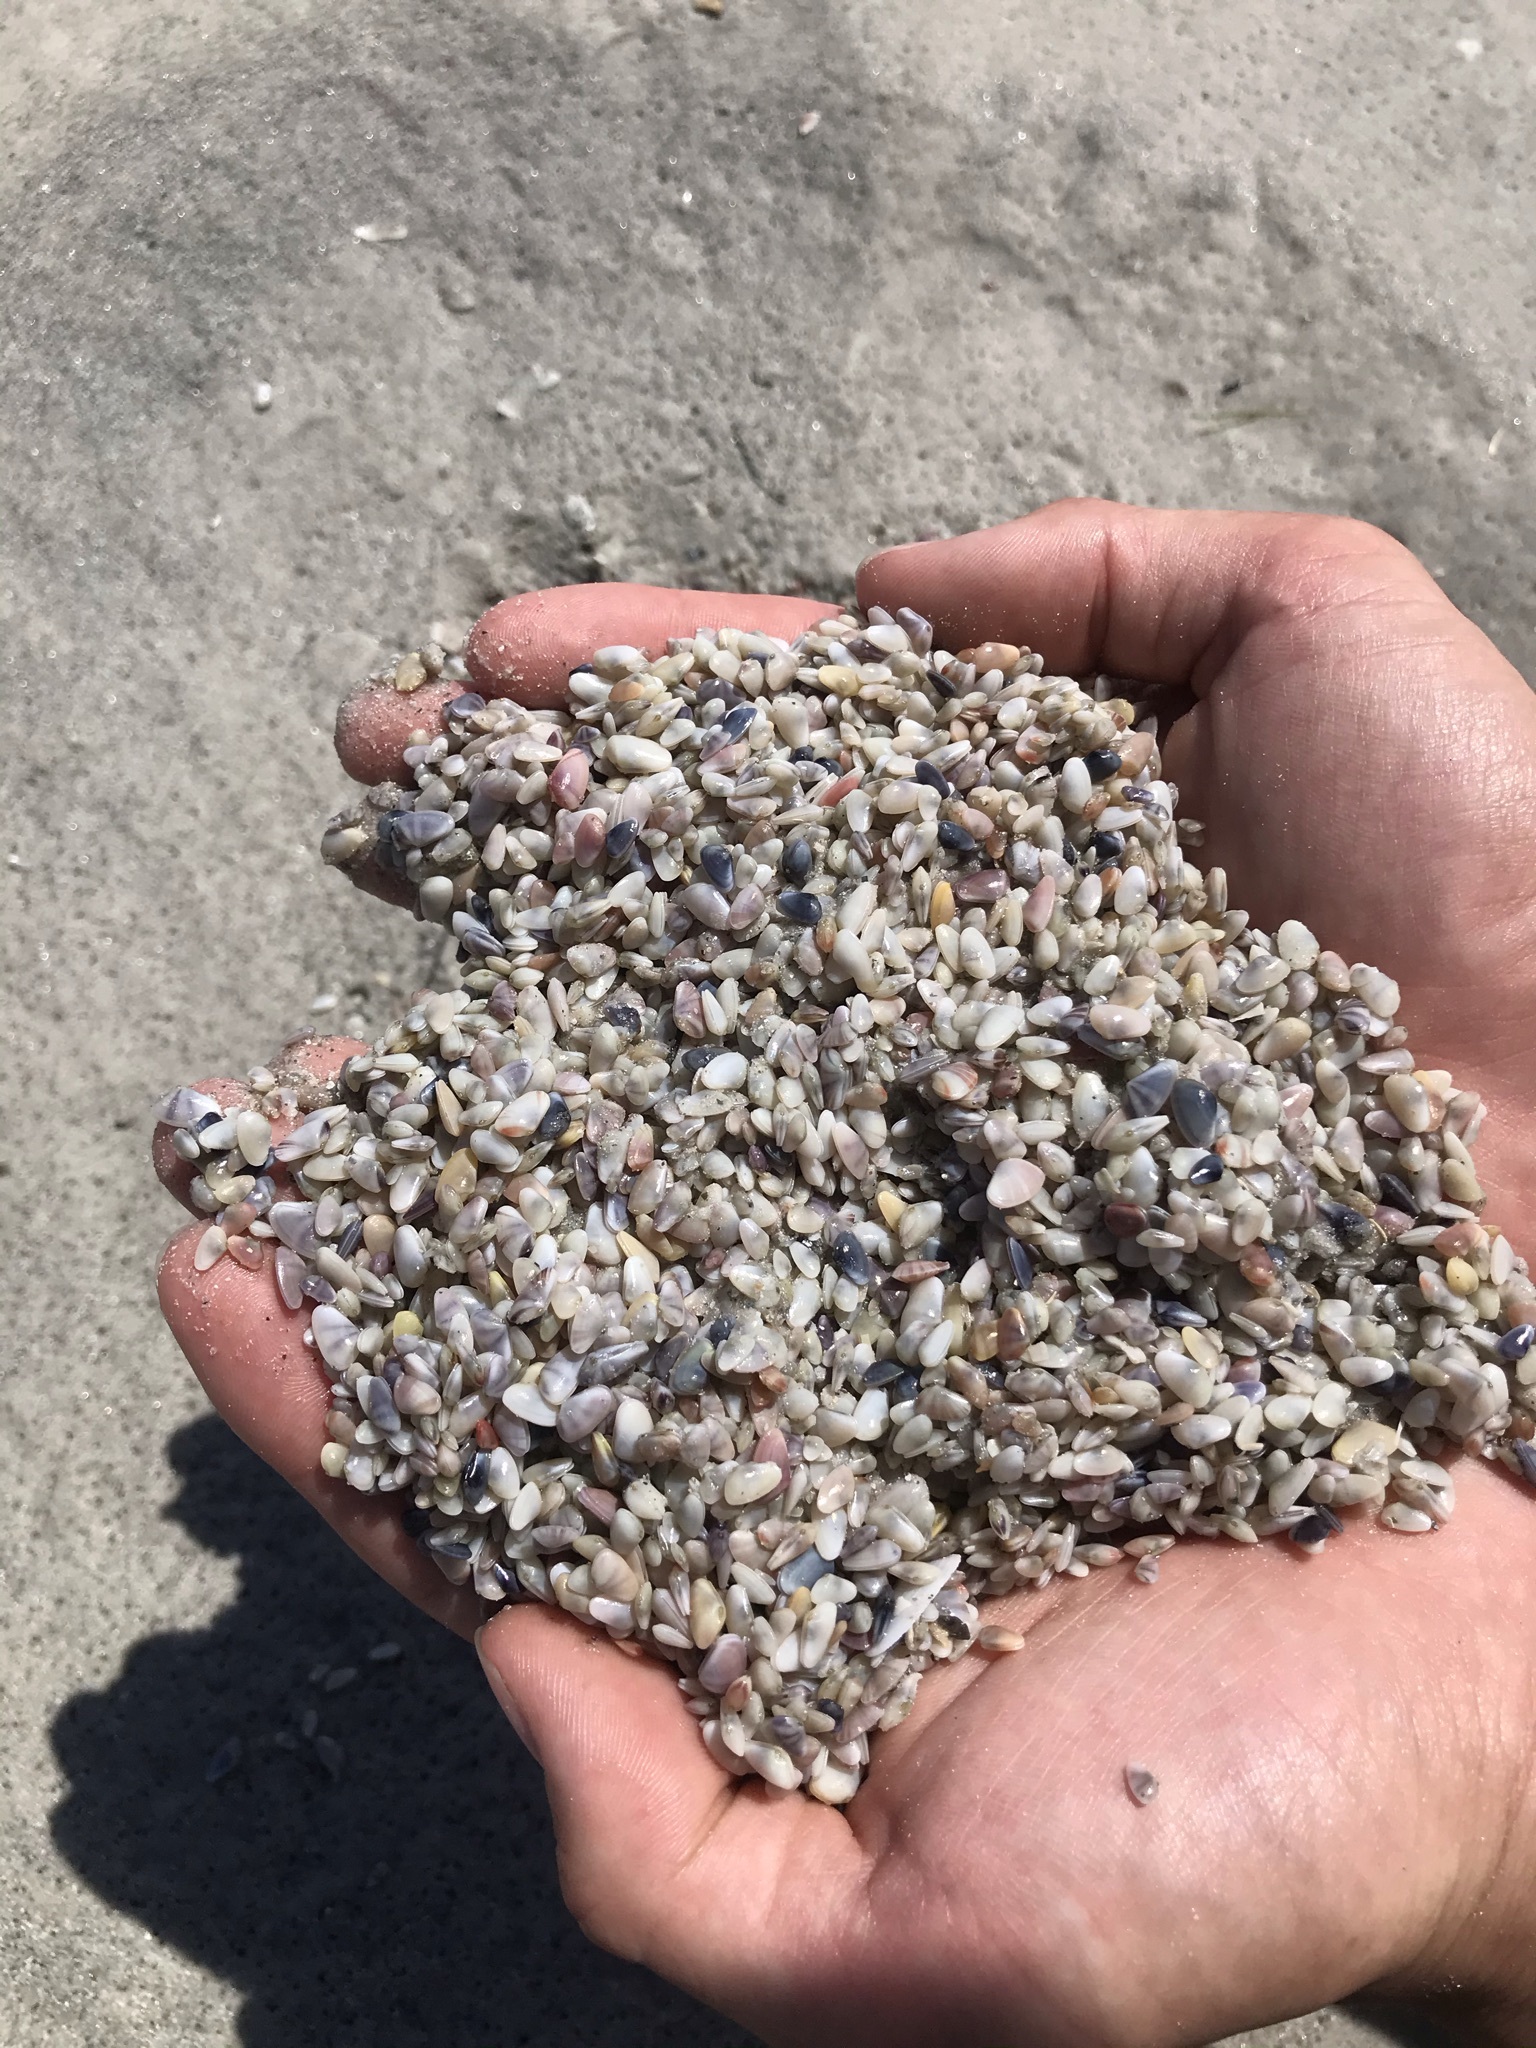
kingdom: Animalia
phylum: Mollusca
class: Bivalvia
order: Cardiida
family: Donacidae
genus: Donax
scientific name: Donax variabilis
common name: Butterfly shell
